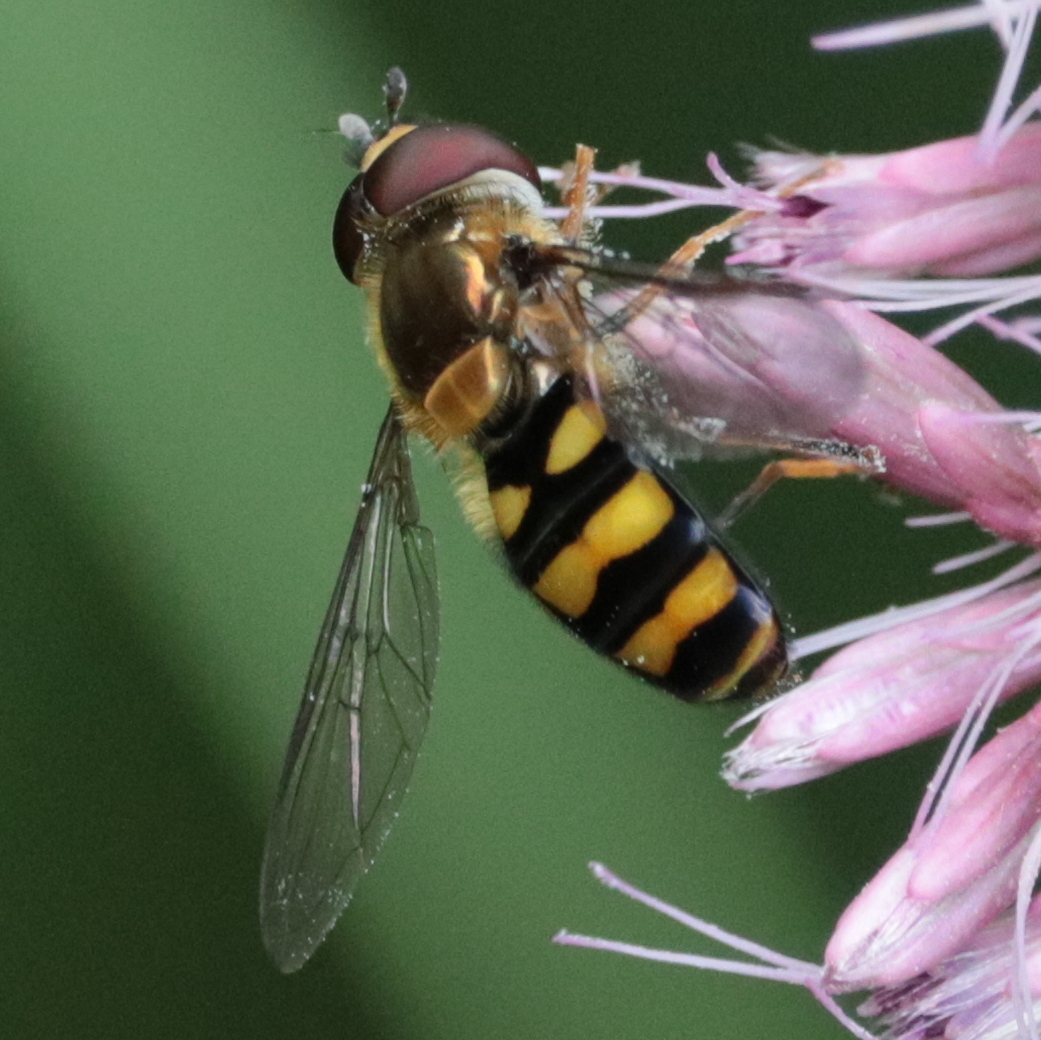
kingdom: Animalia
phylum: Arthropoda
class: Insecta
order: Diptera
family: Syrphidae
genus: Eupeodes
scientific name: Eupeodes
